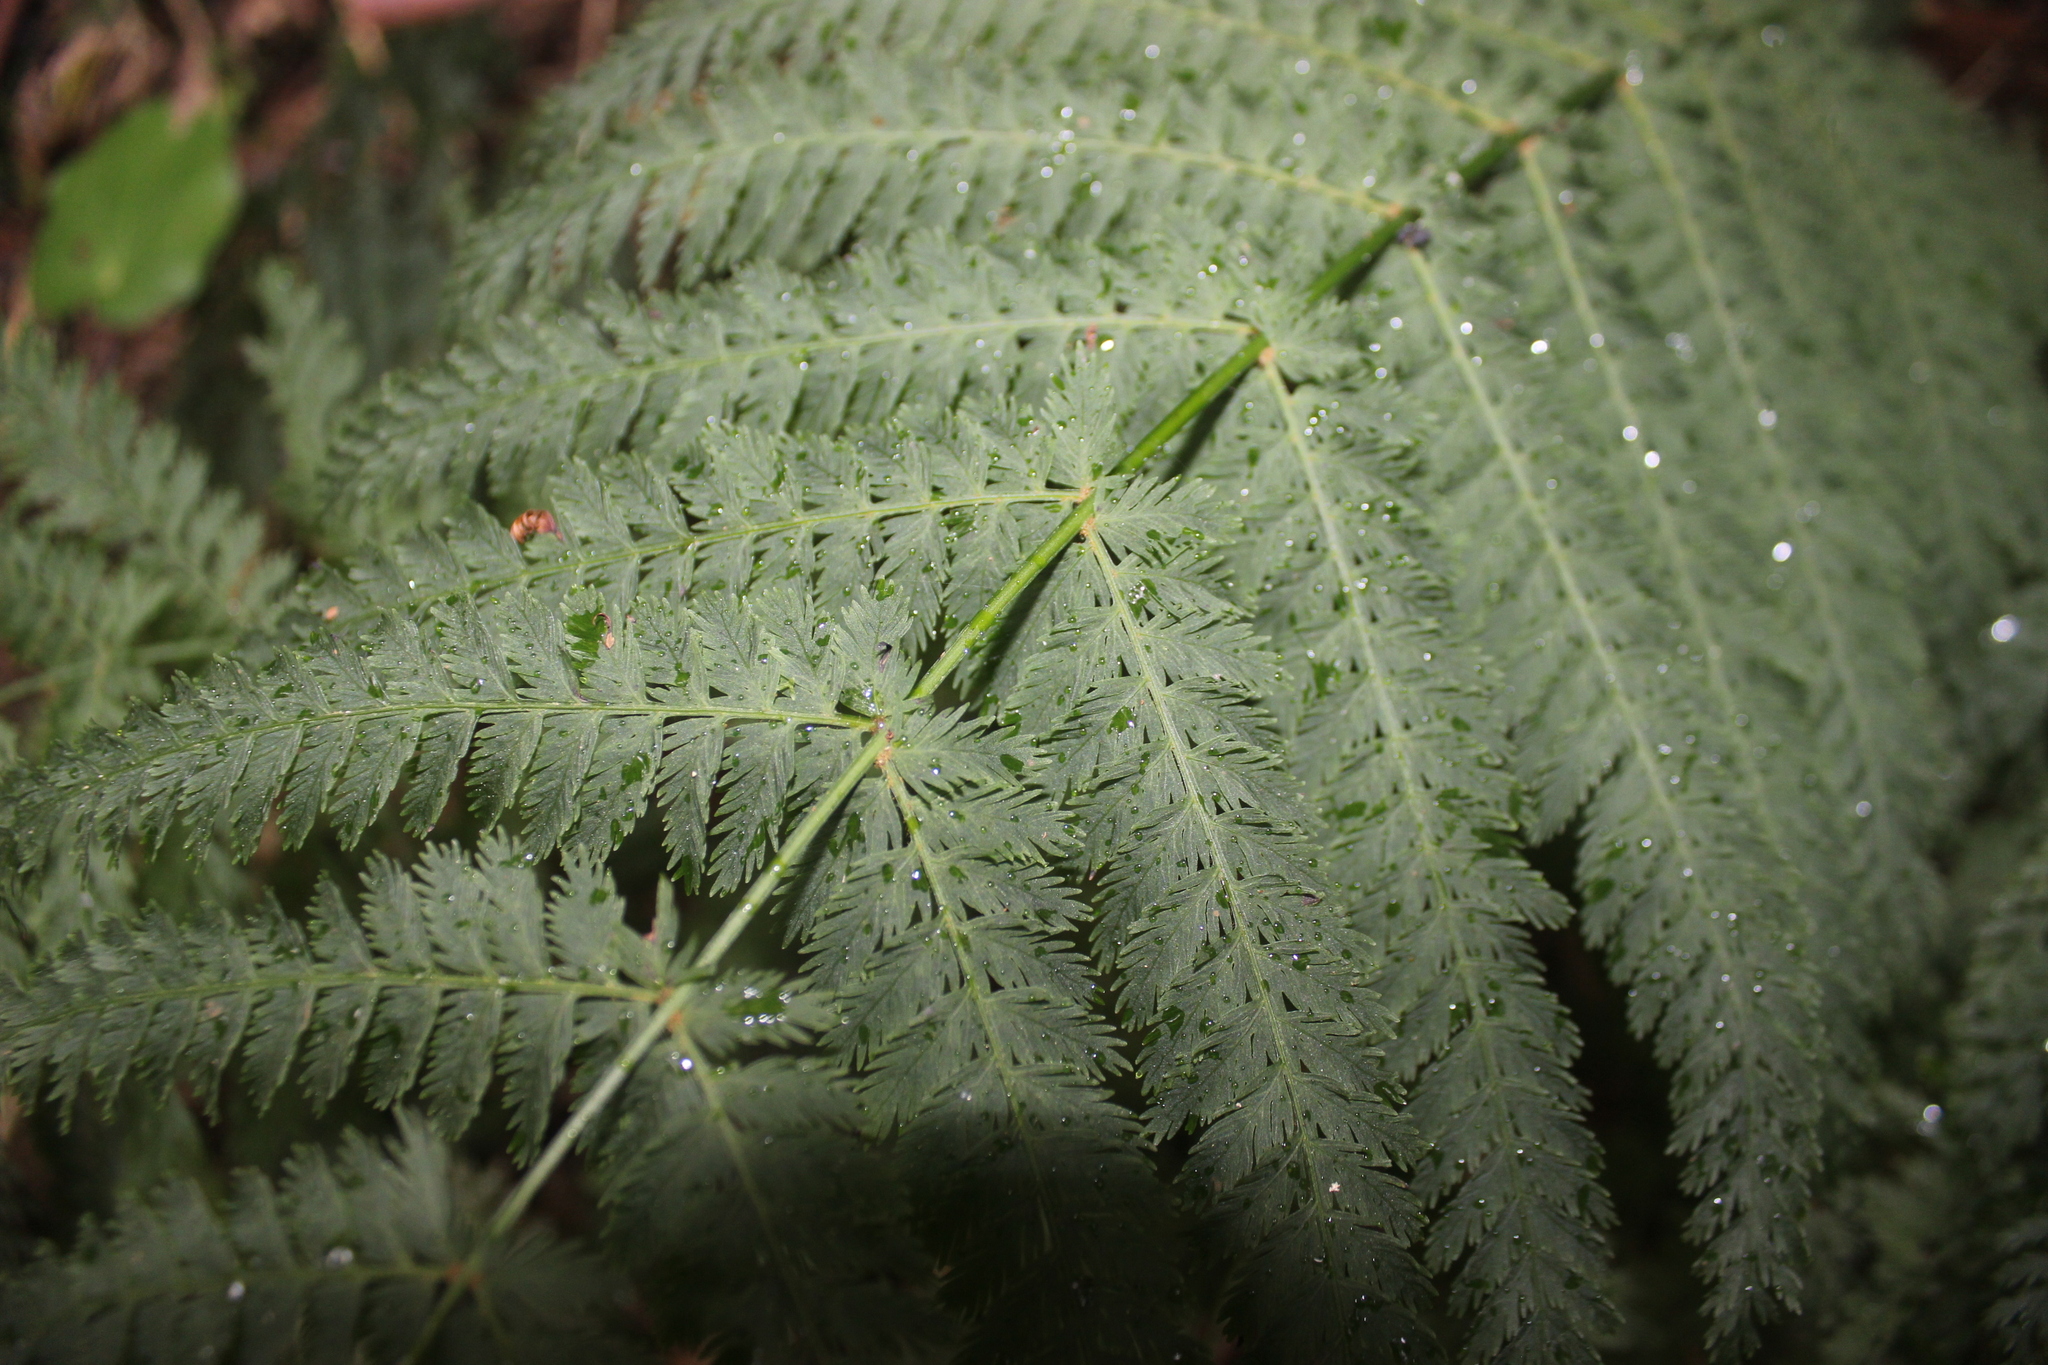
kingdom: Plantae
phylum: Tracheophyta
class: Polypodiopsida
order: Osmundales
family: Osmundaceae
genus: Leptopteris
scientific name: Leptopteris hymenophylloides
